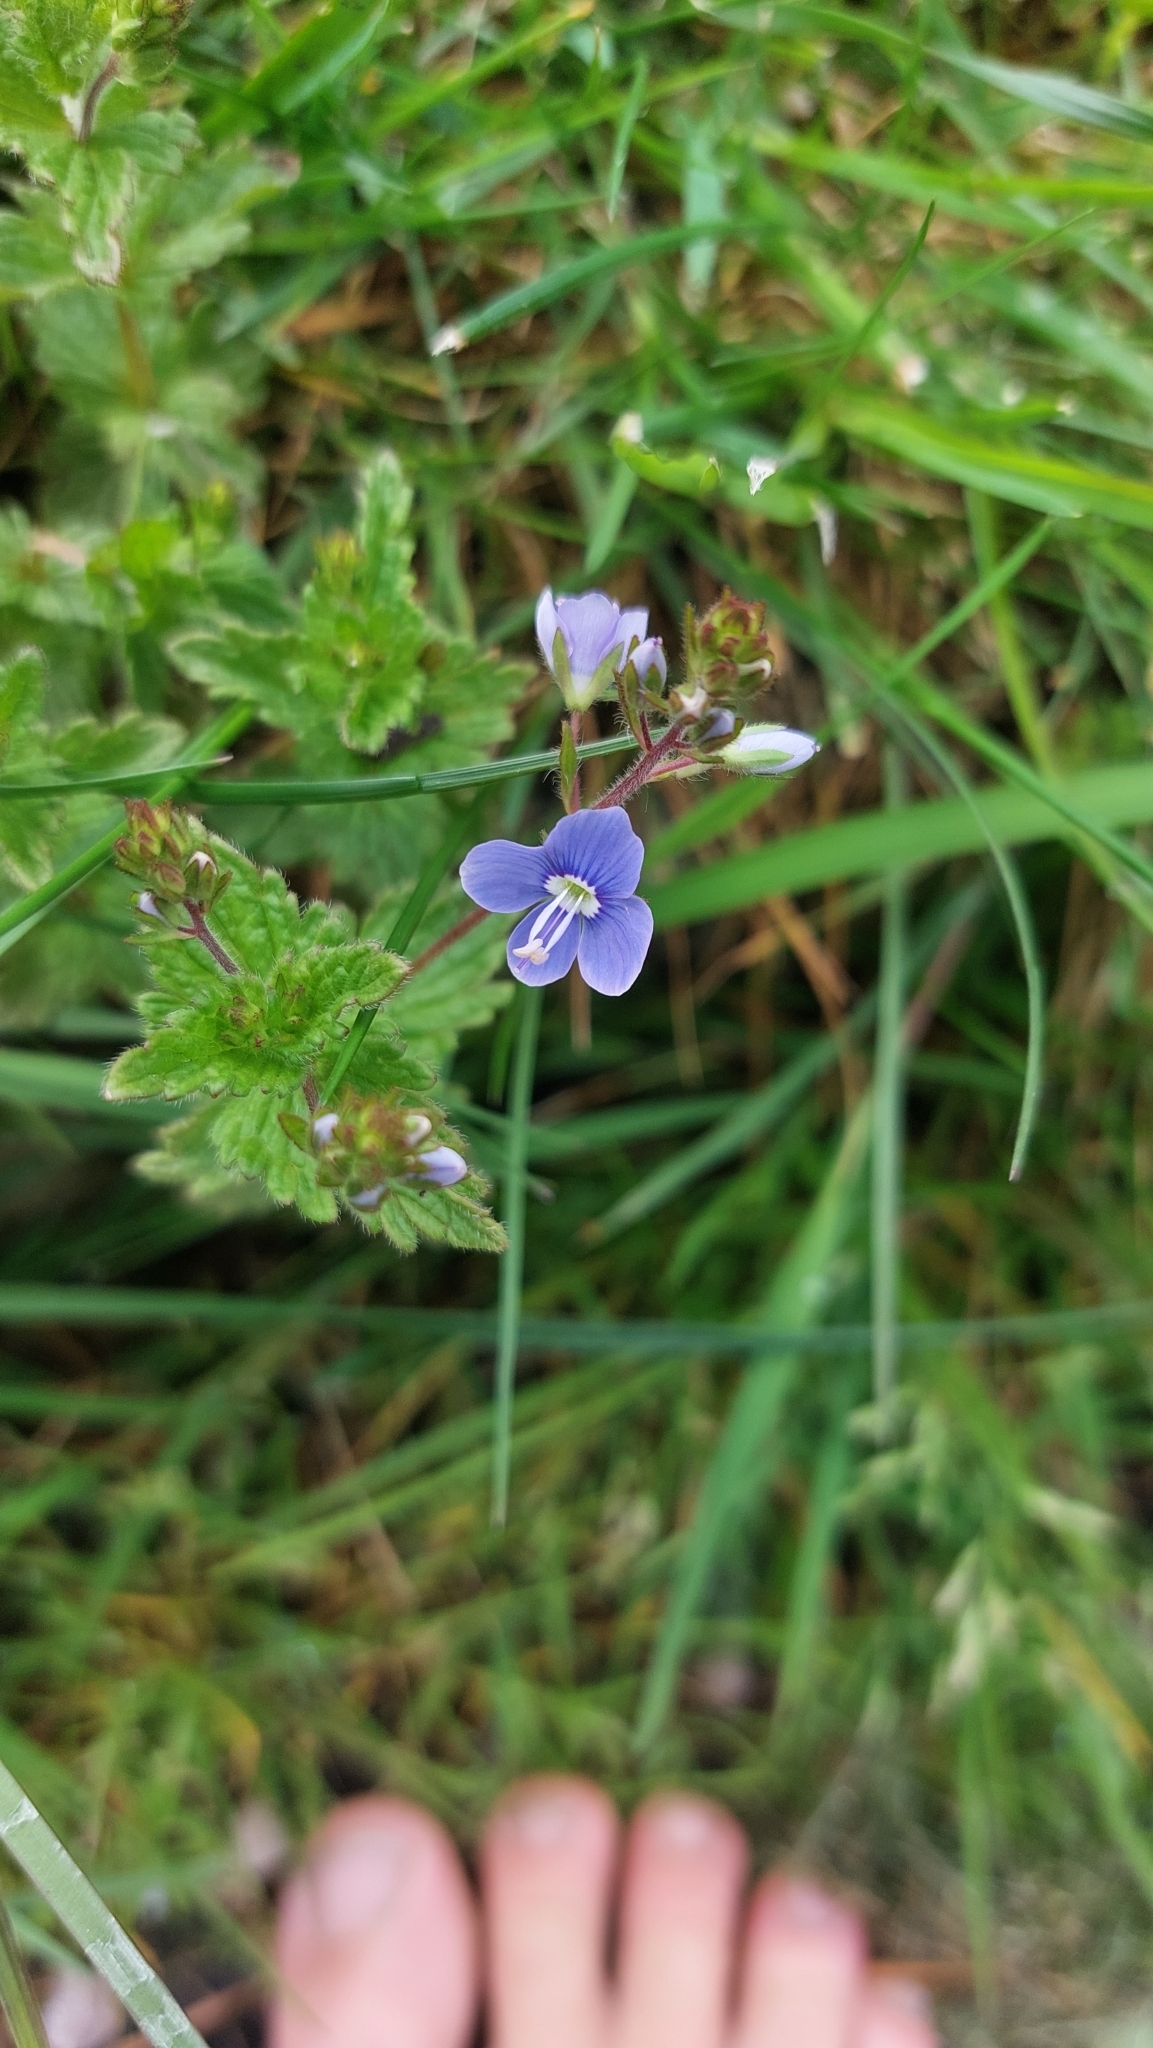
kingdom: Plantae
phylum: Tracheophyta
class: Magnoliopsida
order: Lamiales
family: Plantaginaceae
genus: Veronica
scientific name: Veronica chamaedrys
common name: Germander speedwell
